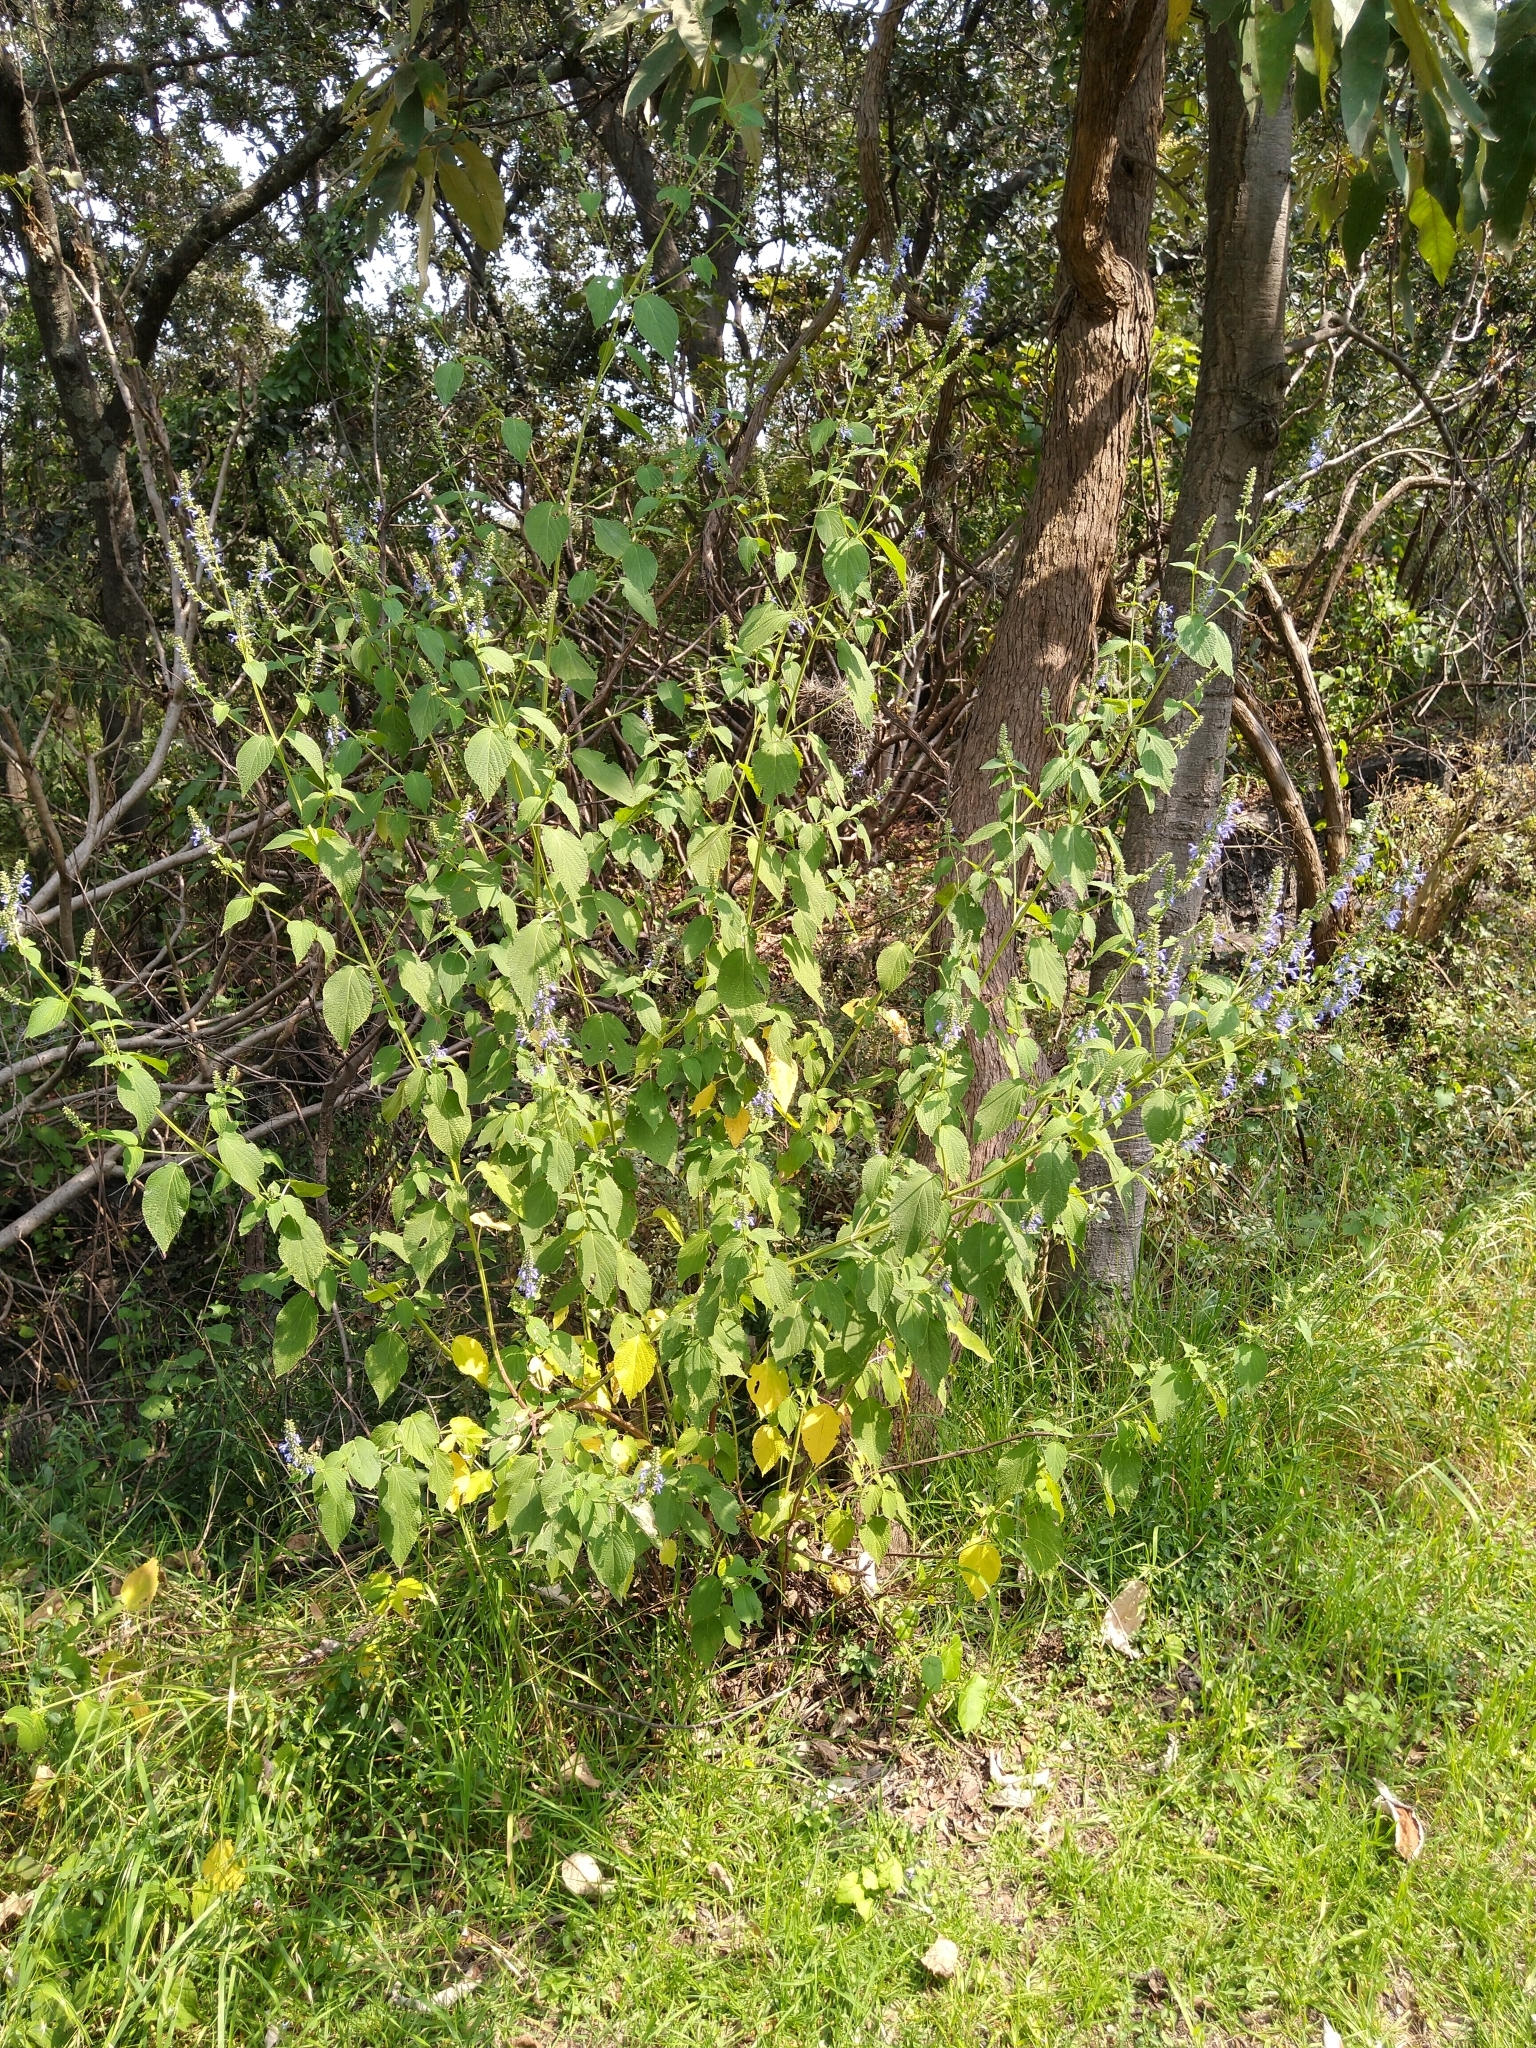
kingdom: Plantae
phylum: Tracheophyta
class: Magnoliopsida
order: Lamiales
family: Lamiaceae
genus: Salvia
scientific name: Salvia polystachia
